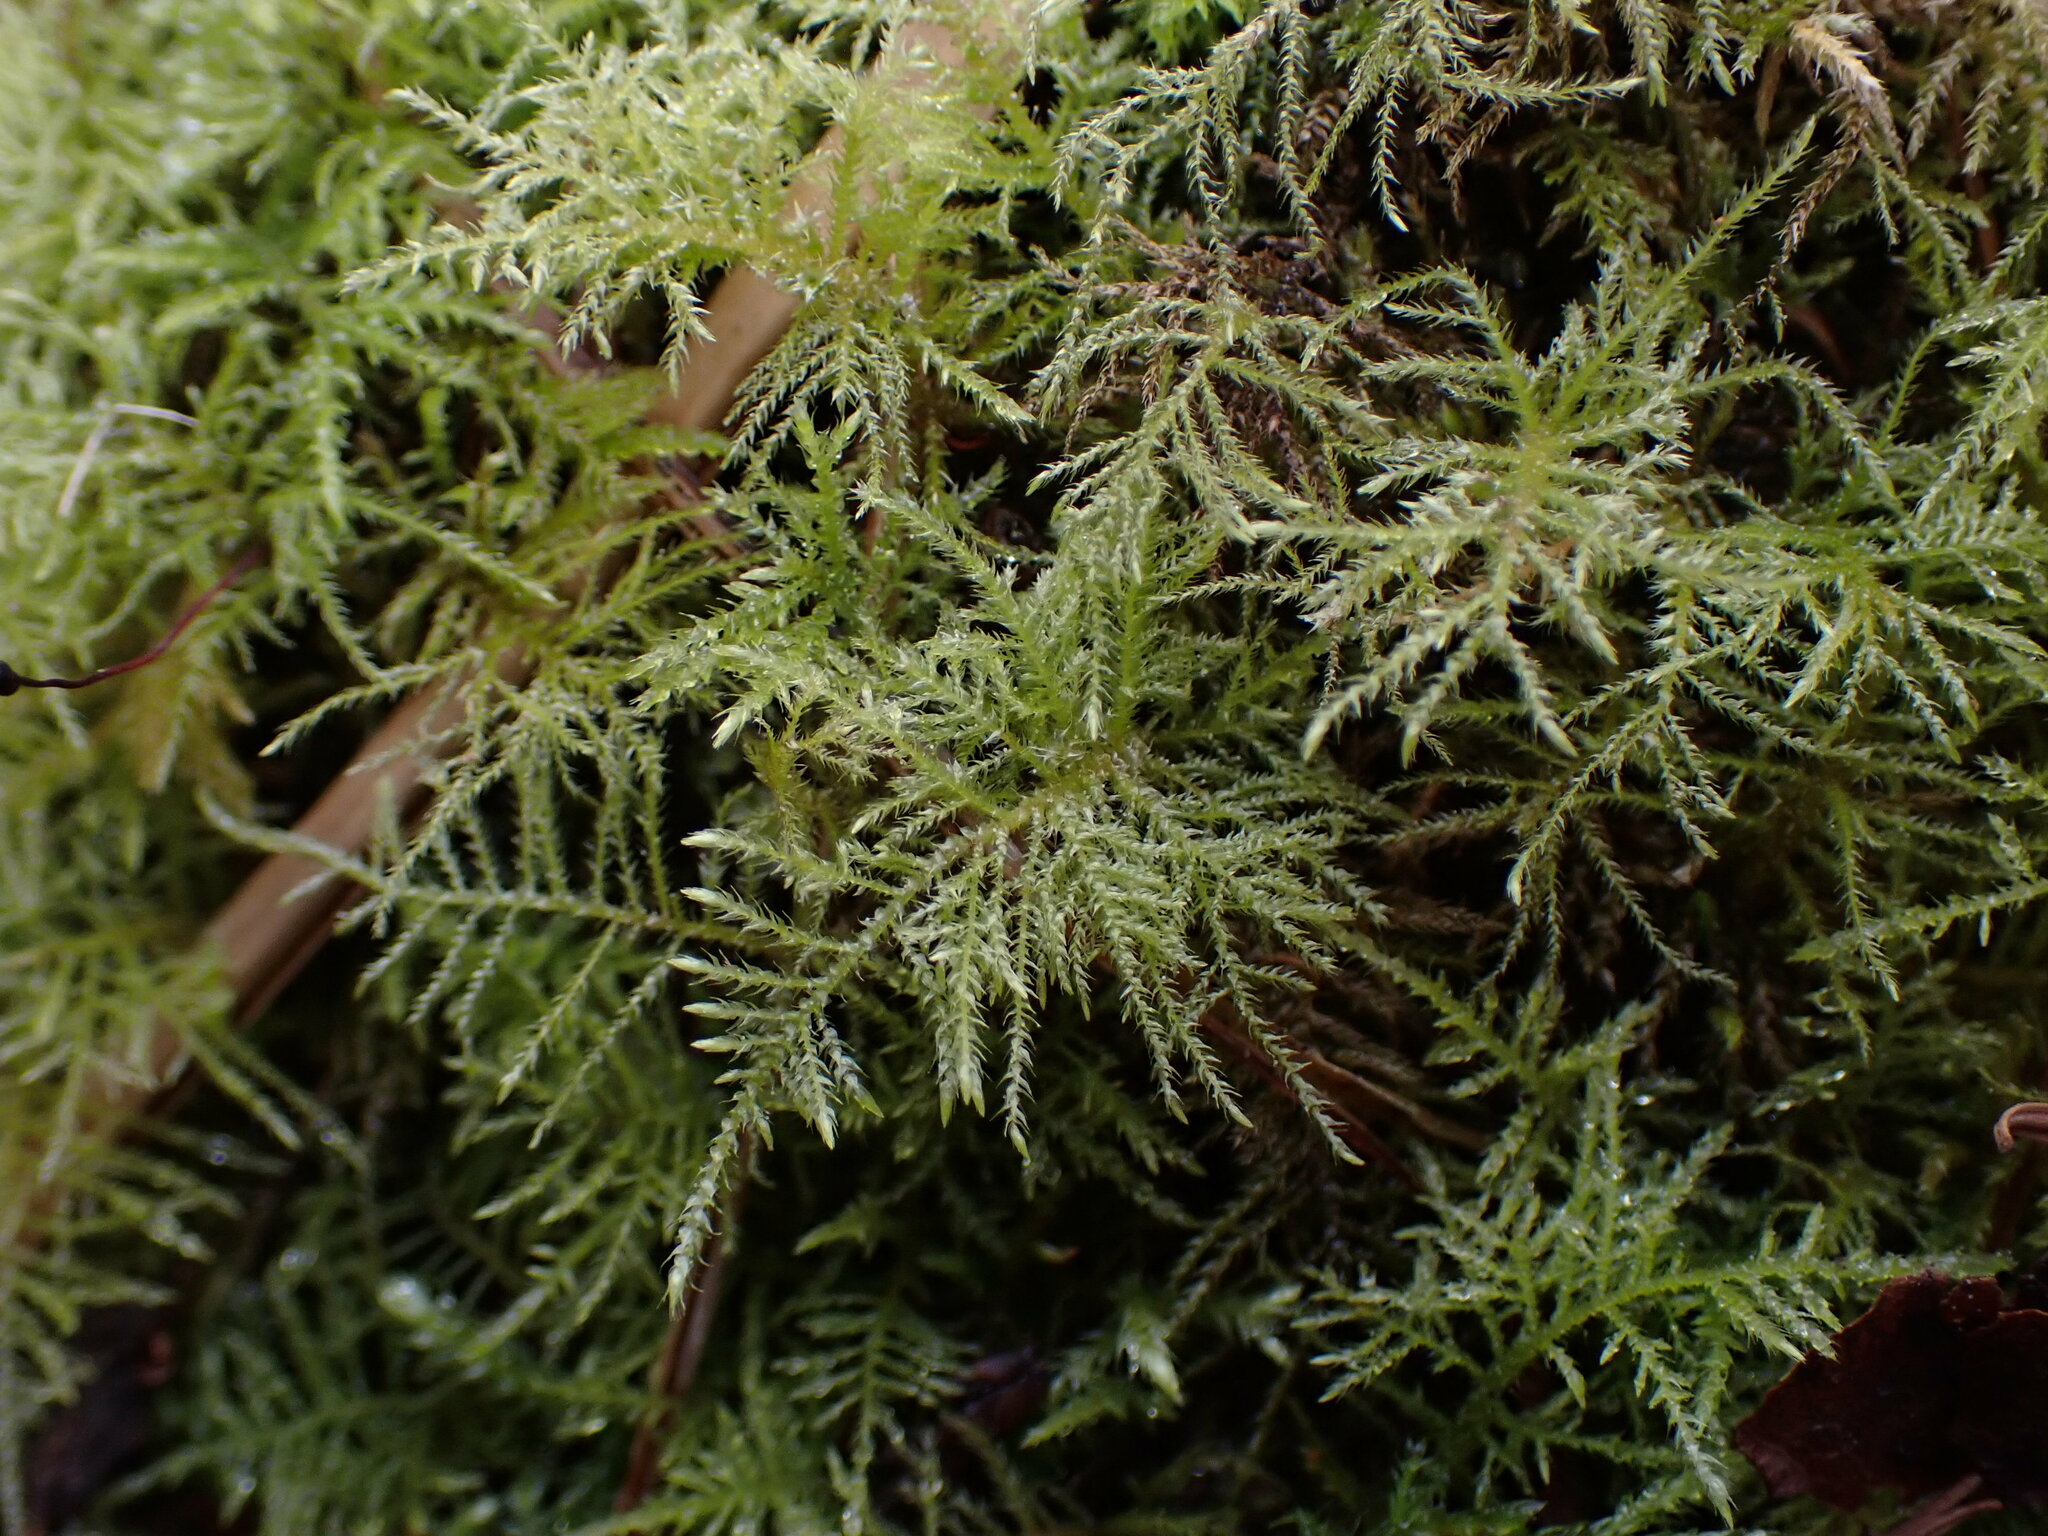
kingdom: Plantae
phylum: Bryophyta
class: Bryopsida
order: Hypnales
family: Brachytheciaceae
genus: Kindbergia
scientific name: Kindbergia praelonga
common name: Slender beaked moss
